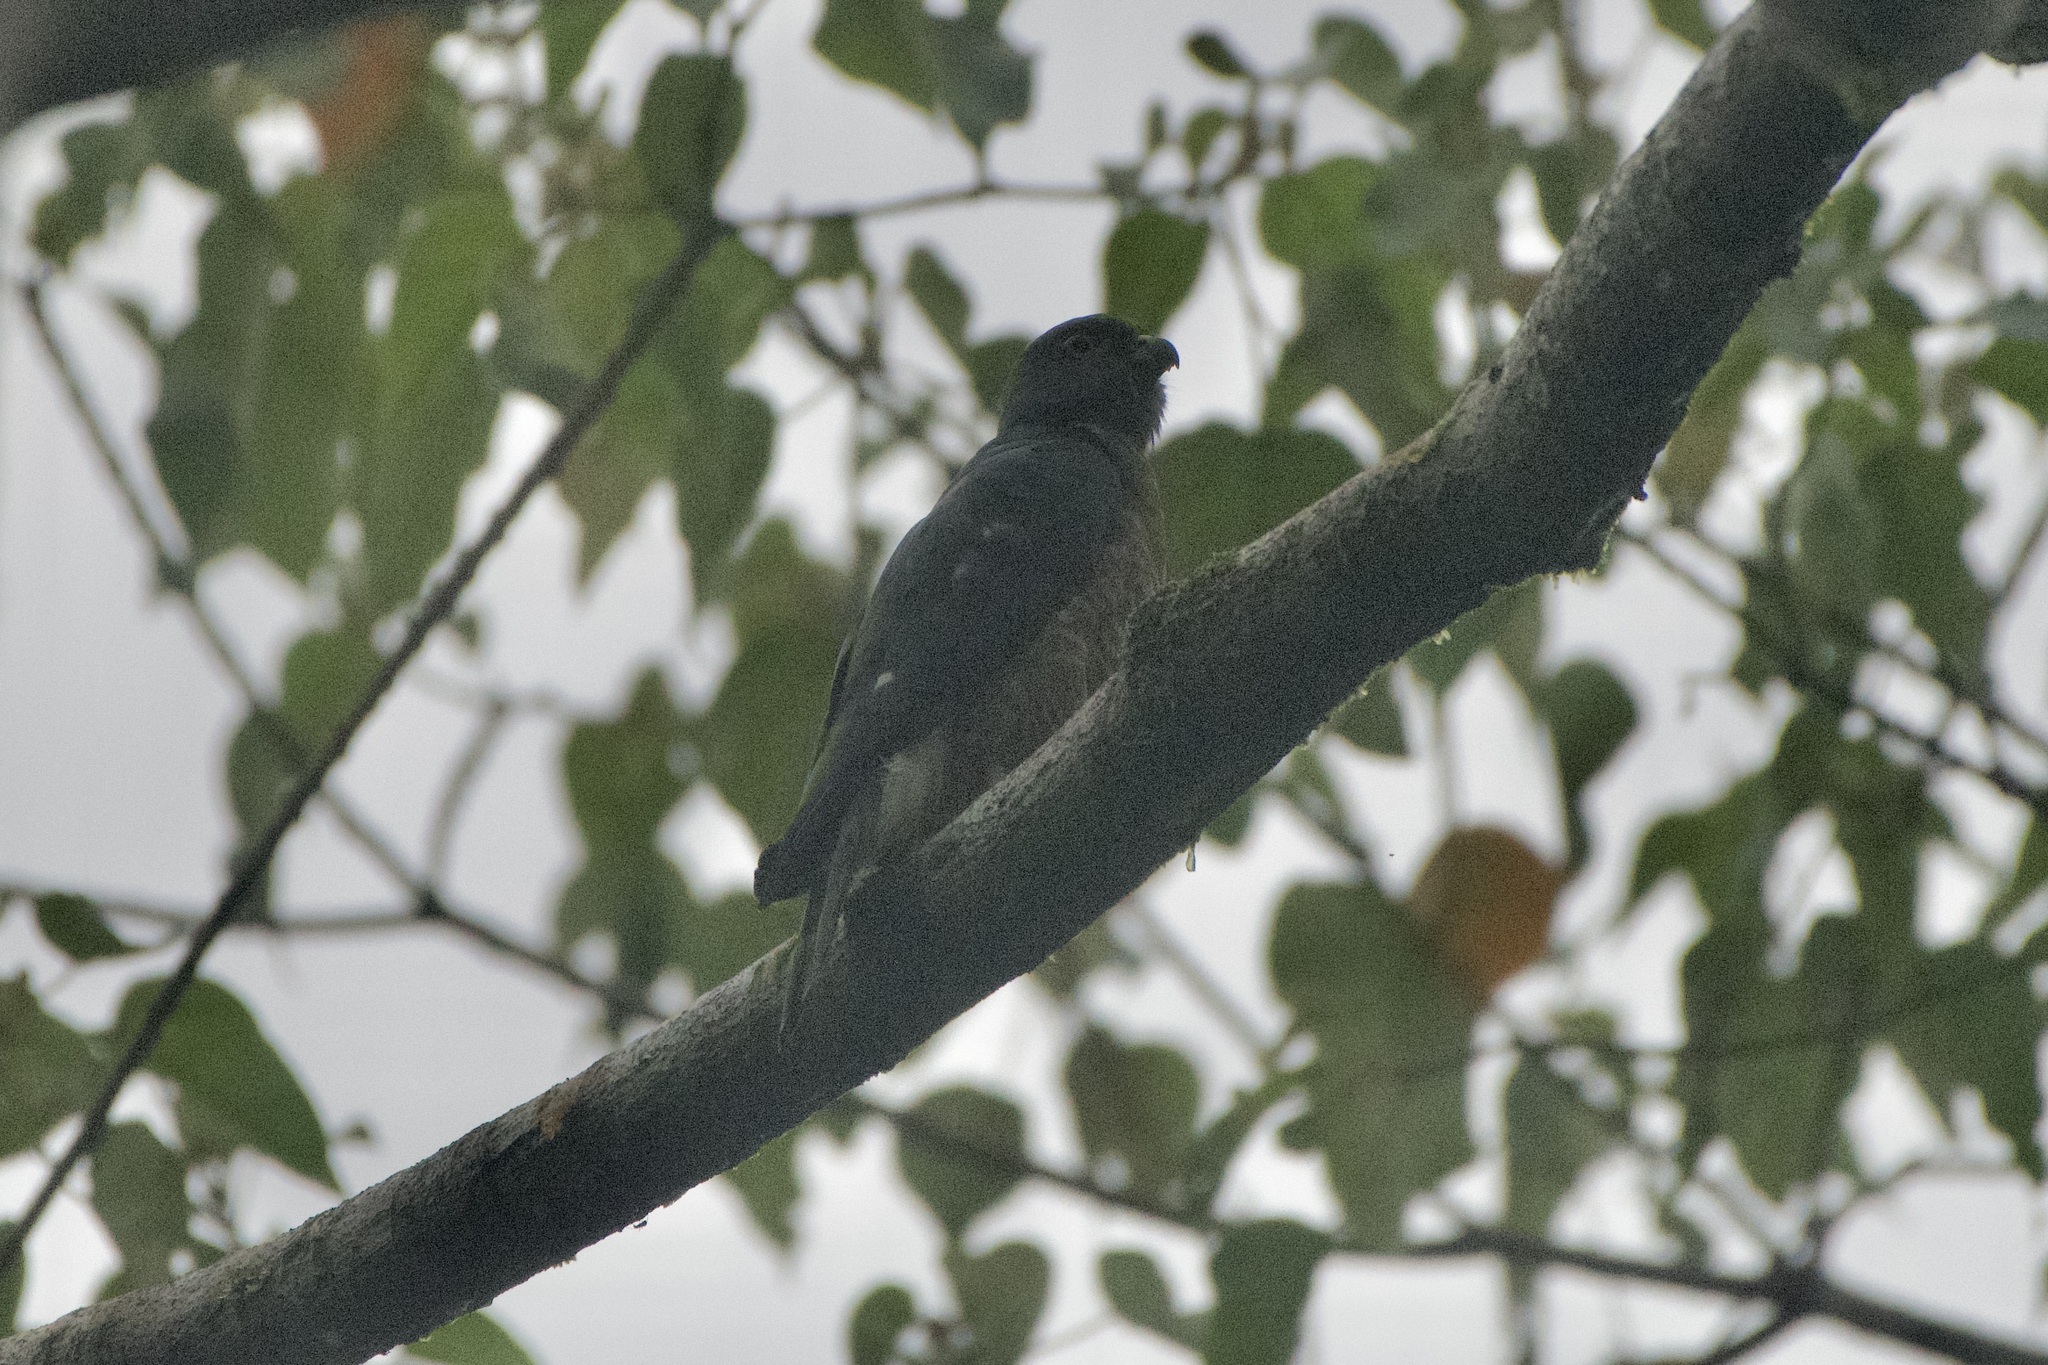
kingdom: Animalia
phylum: Chordata
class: Aves
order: Accipitriformes
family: Accipitridae
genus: Harpagus
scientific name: Harpagus bidentatus
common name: Double-toothed kite
